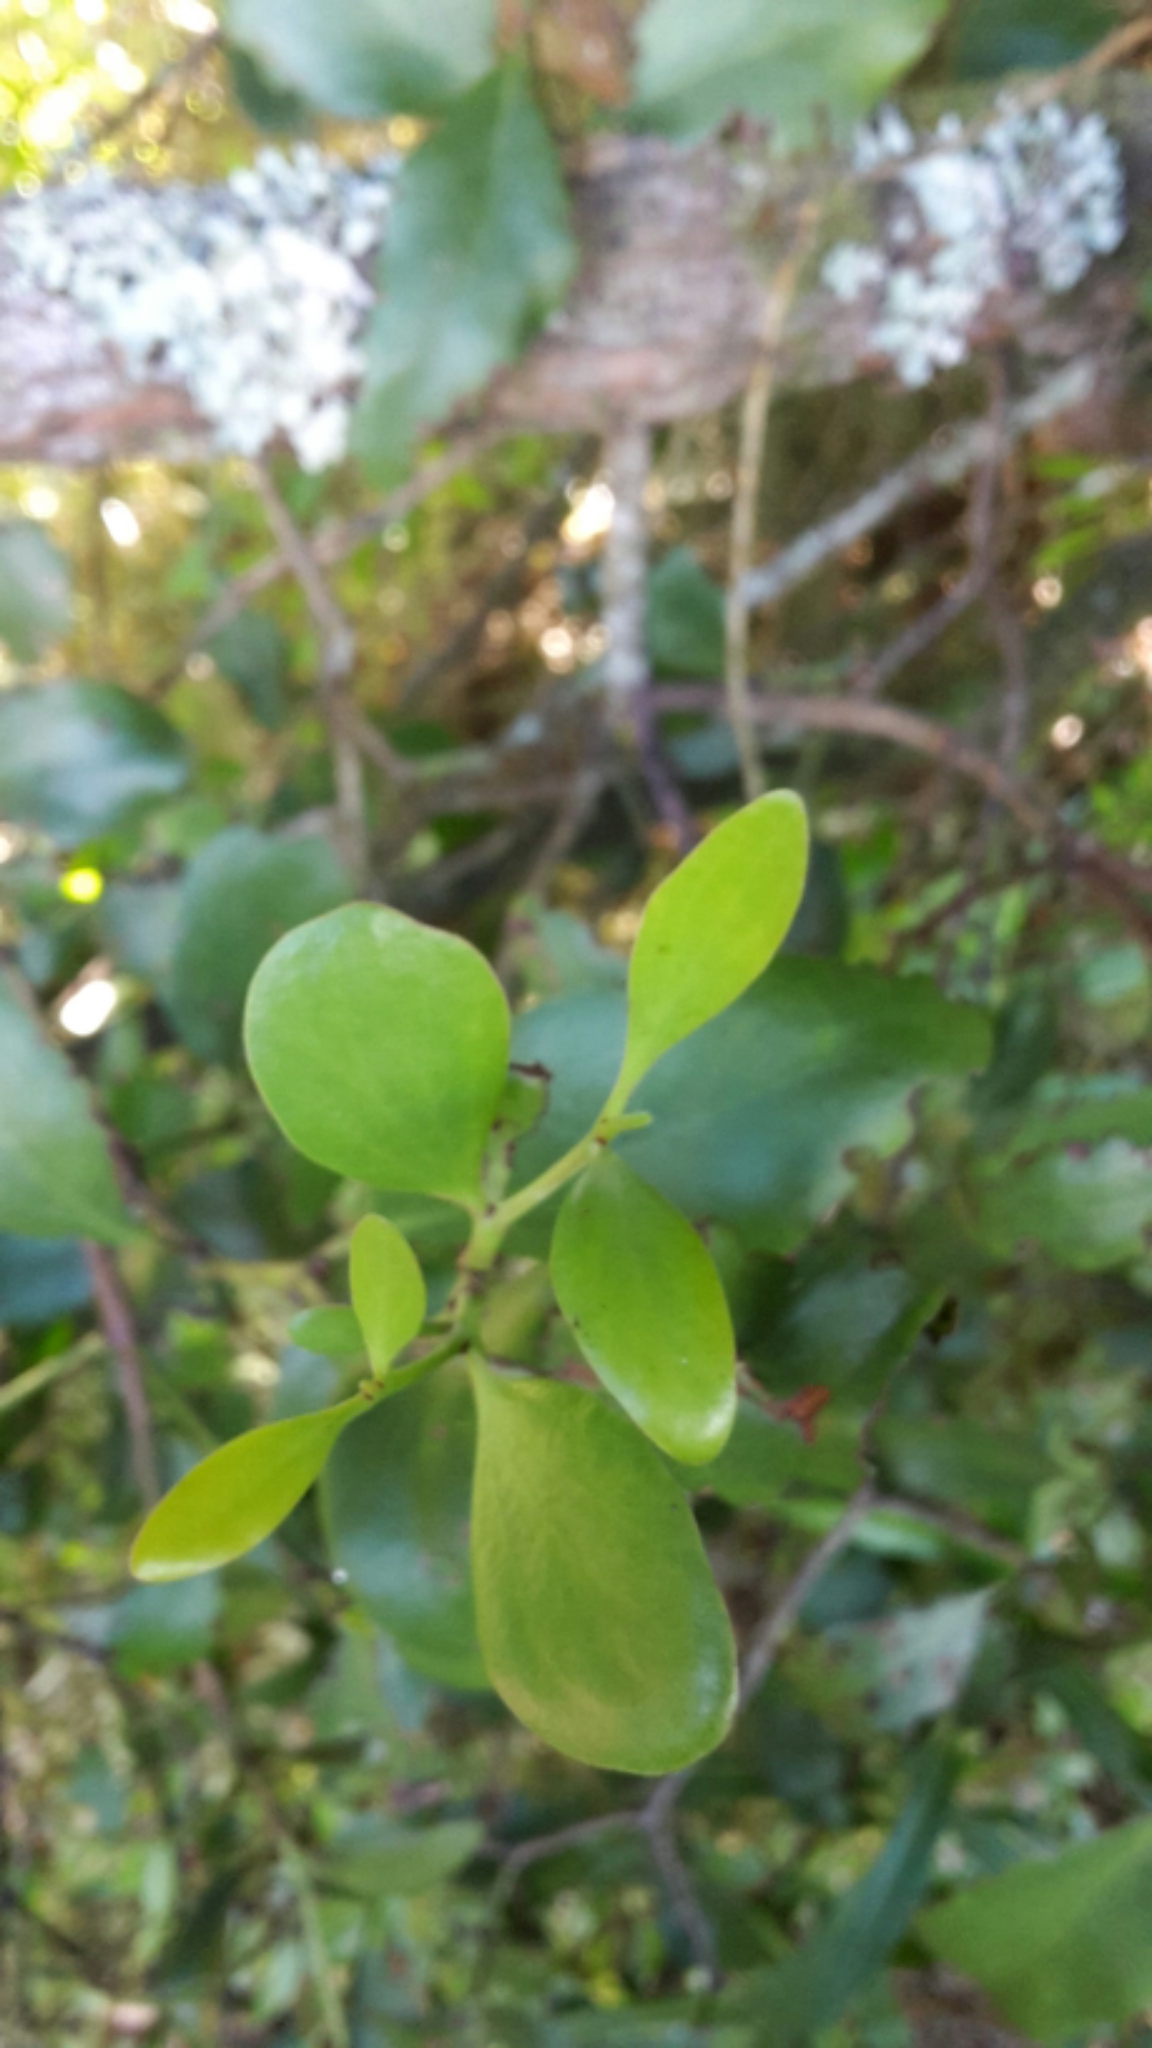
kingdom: Plantae
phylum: Tracheophyta
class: Magnoliopsida
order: Santalales
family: Loranthaceae
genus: Ileostylus
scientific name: Ileostylus micranthus
